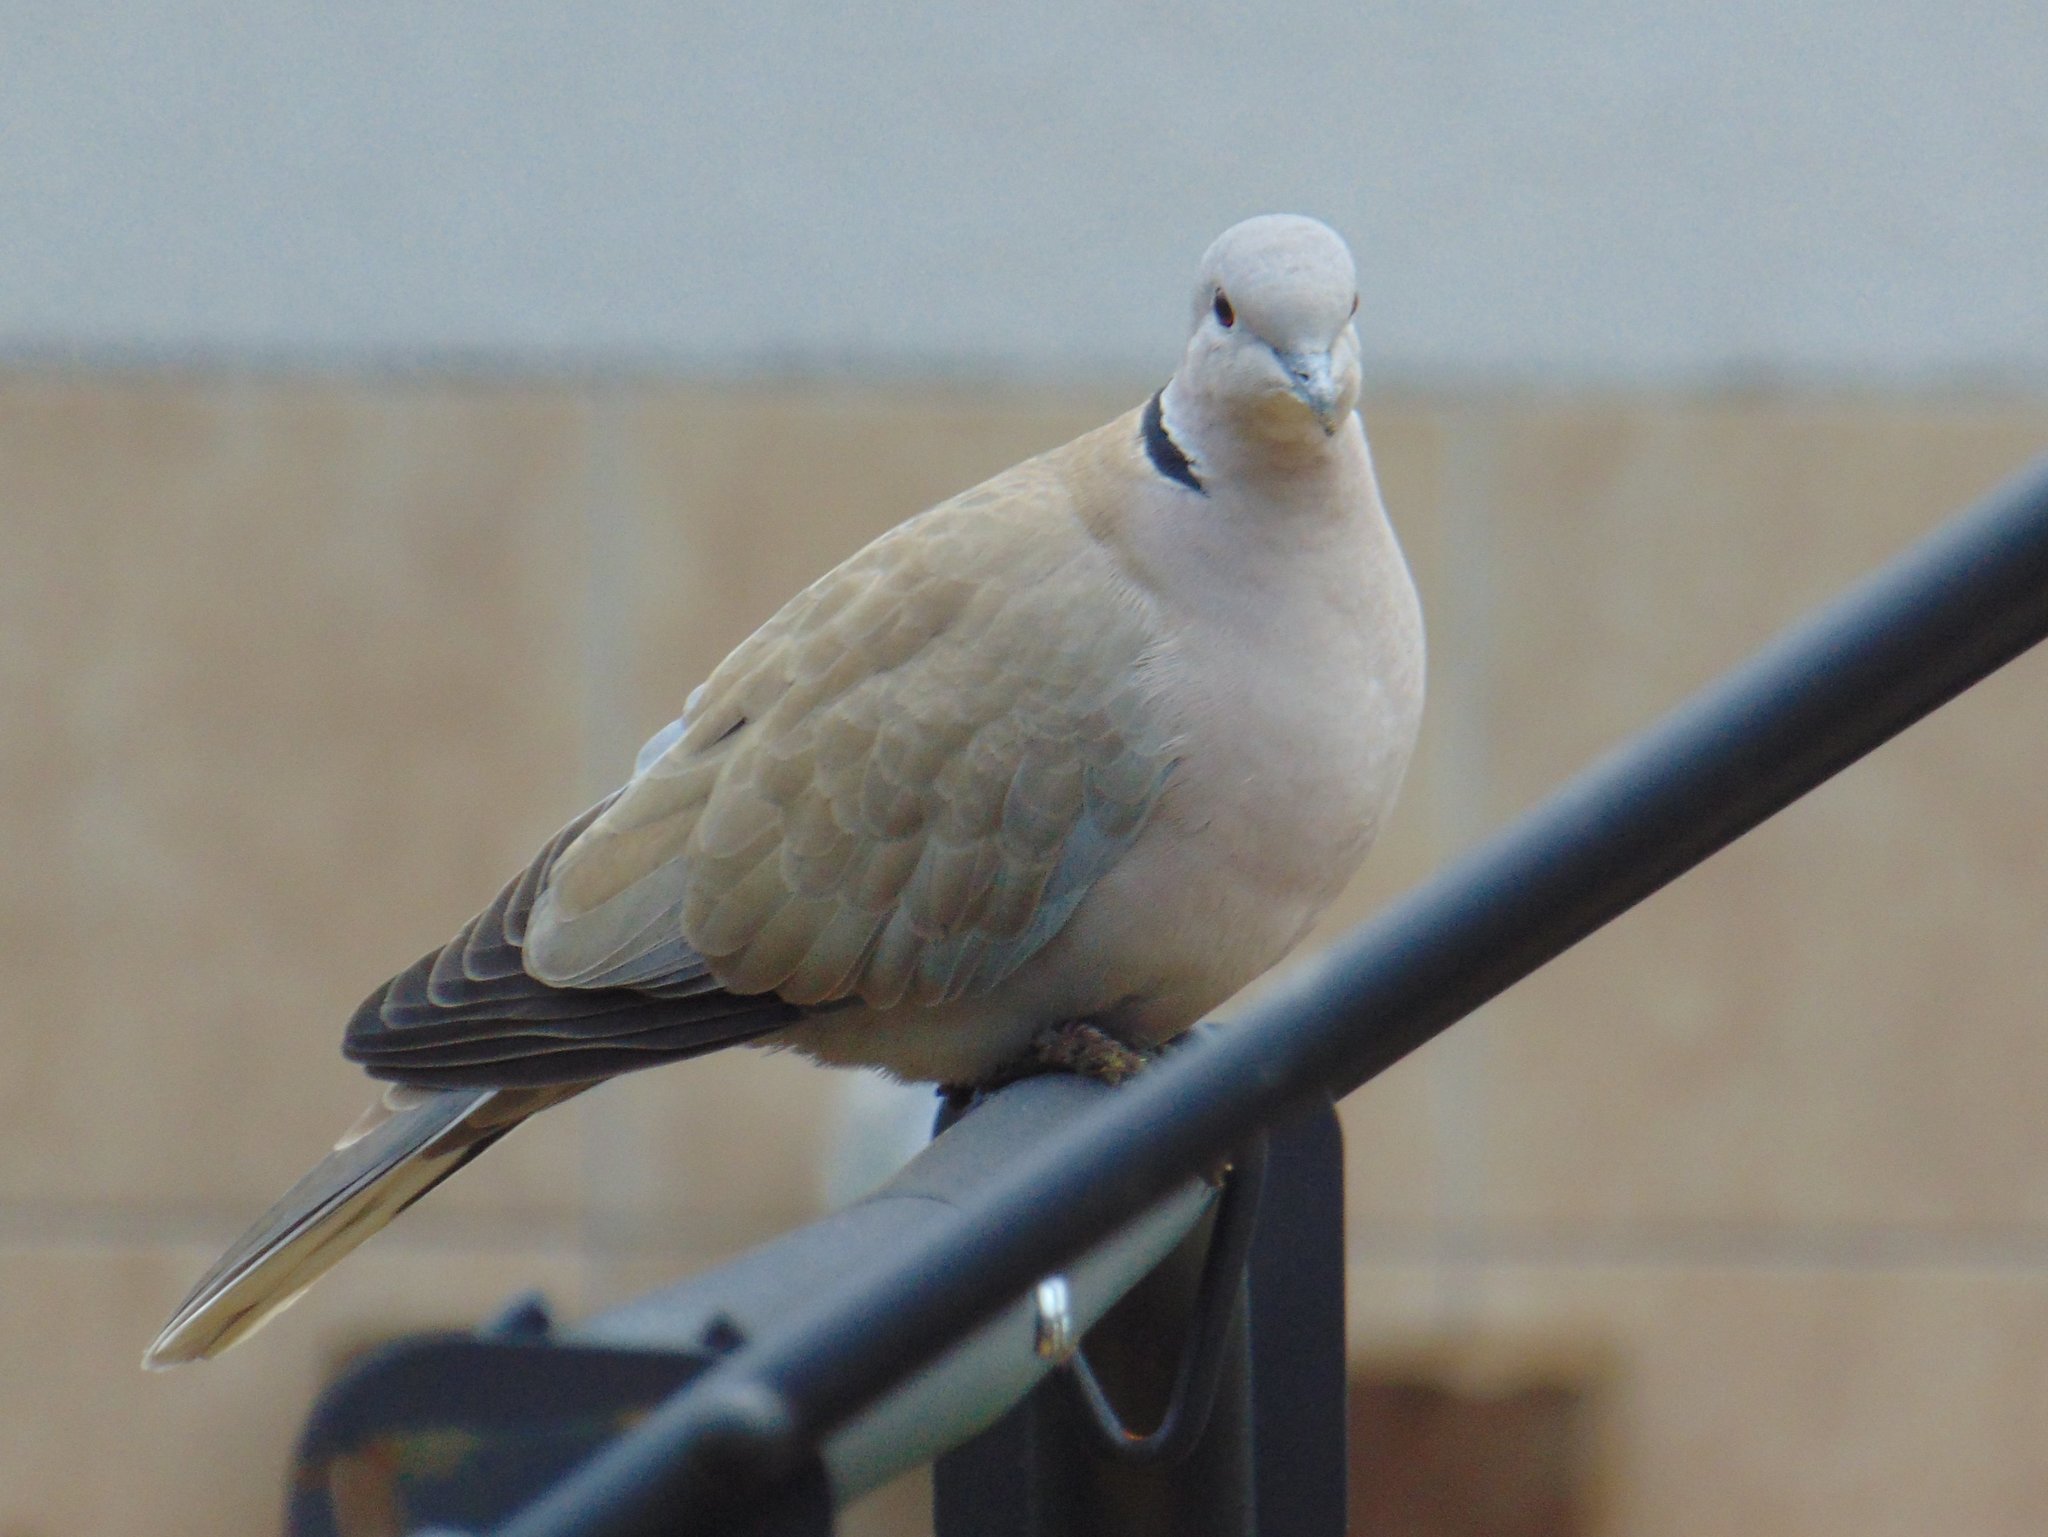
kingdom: Animalia
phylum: Chordata
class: Aves
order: Columbiformes
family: Columbidae
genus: Streptopelia
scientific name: Streptopelia decaocto
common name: Eurasian collared dove
